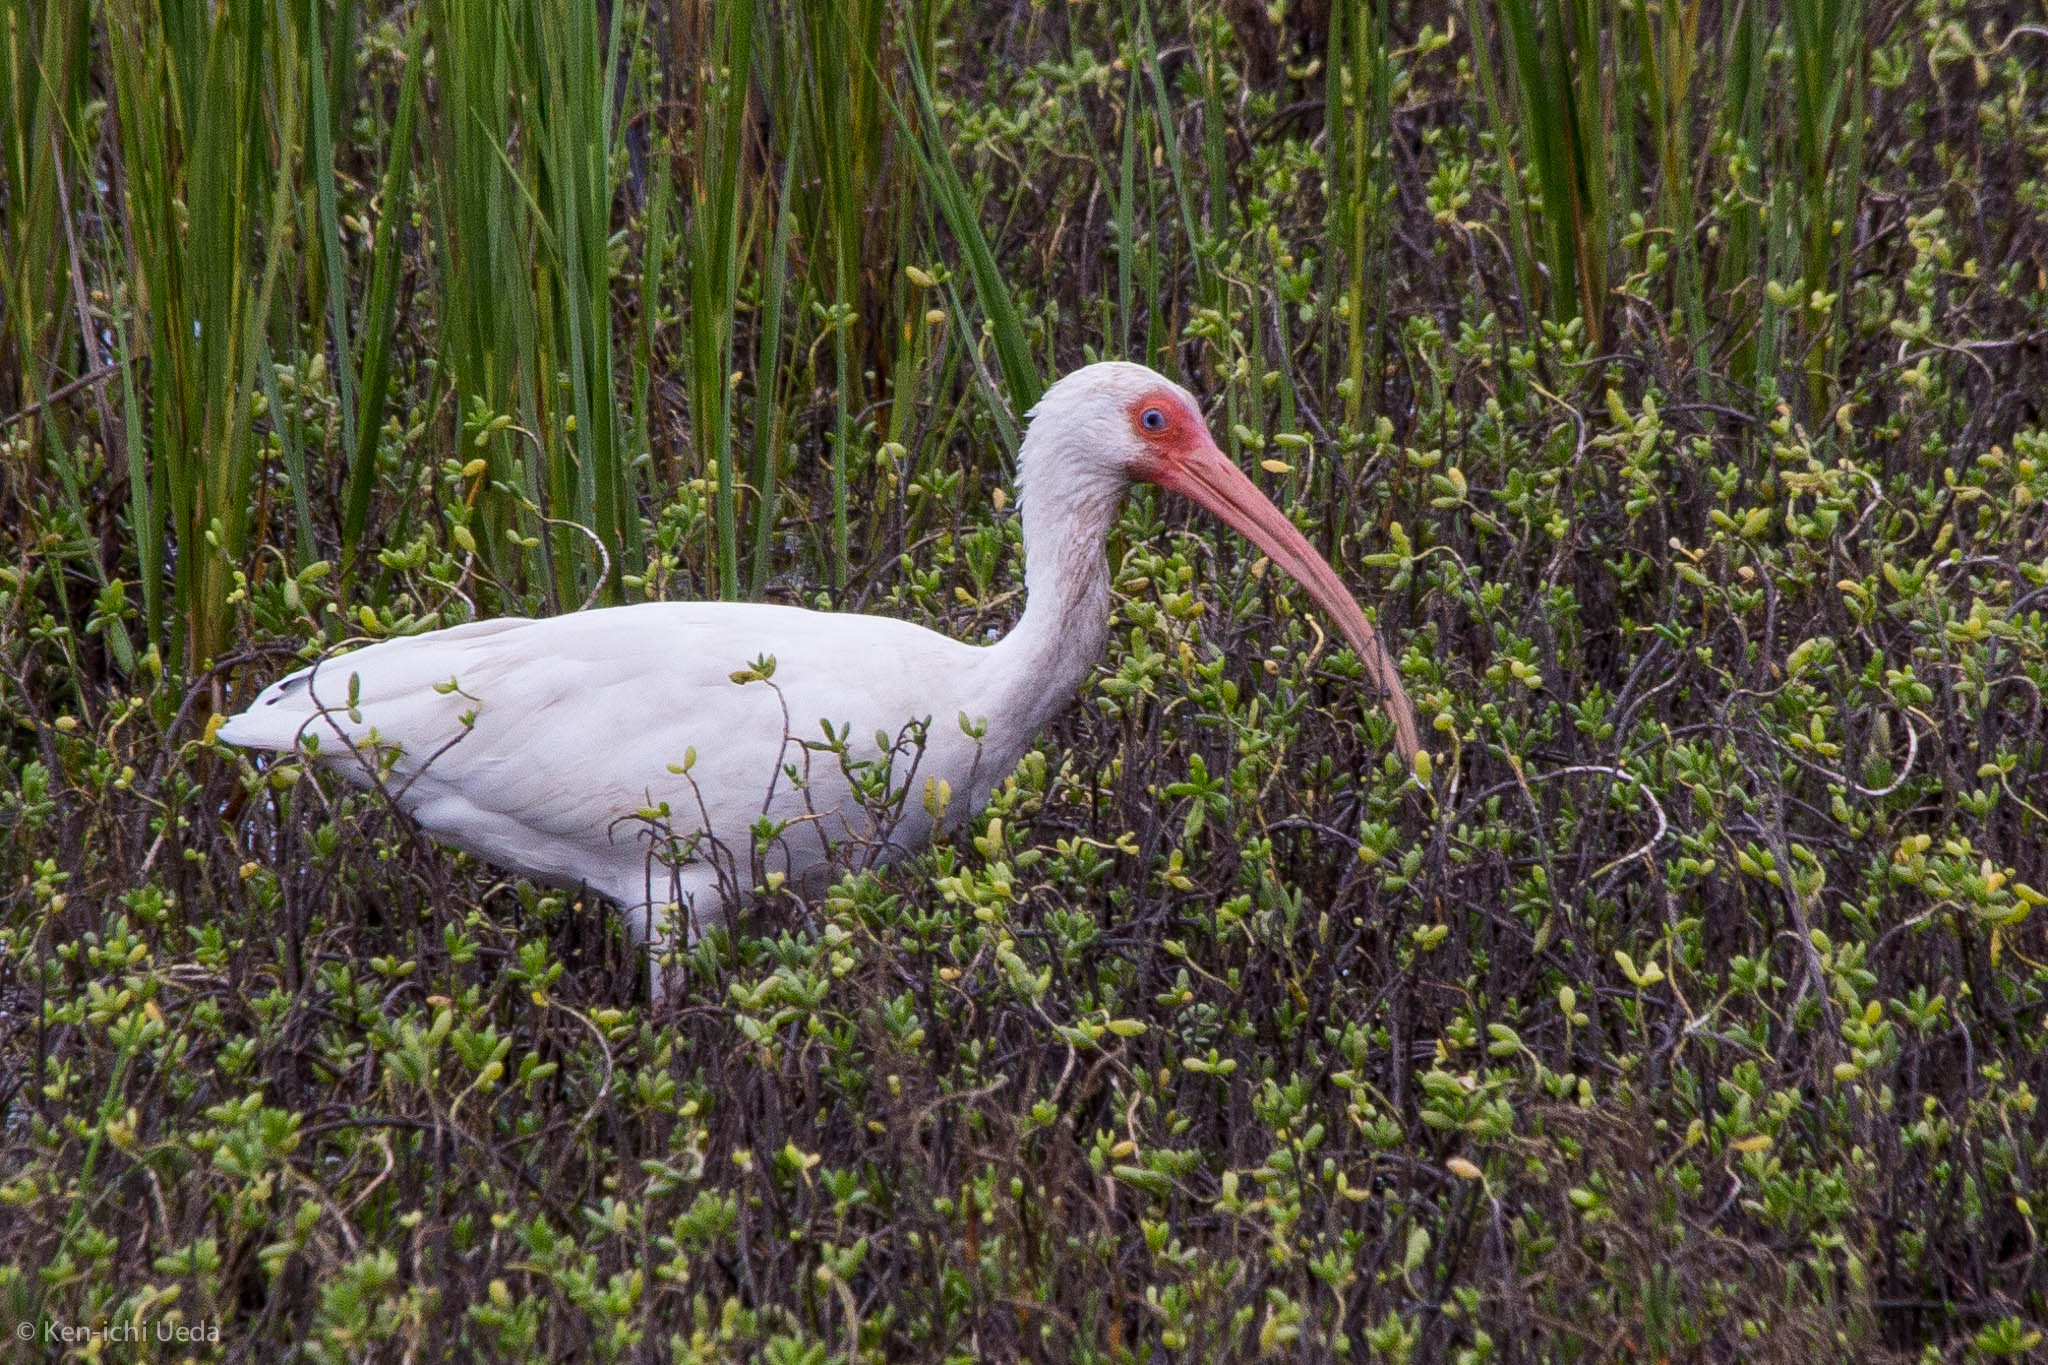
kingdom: Animalia
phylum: Chordata
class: Aves
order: Pelecaniformes
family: Threskiornithidae
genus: Eudocimus
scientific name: Eudocimus albus
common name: White ibis
